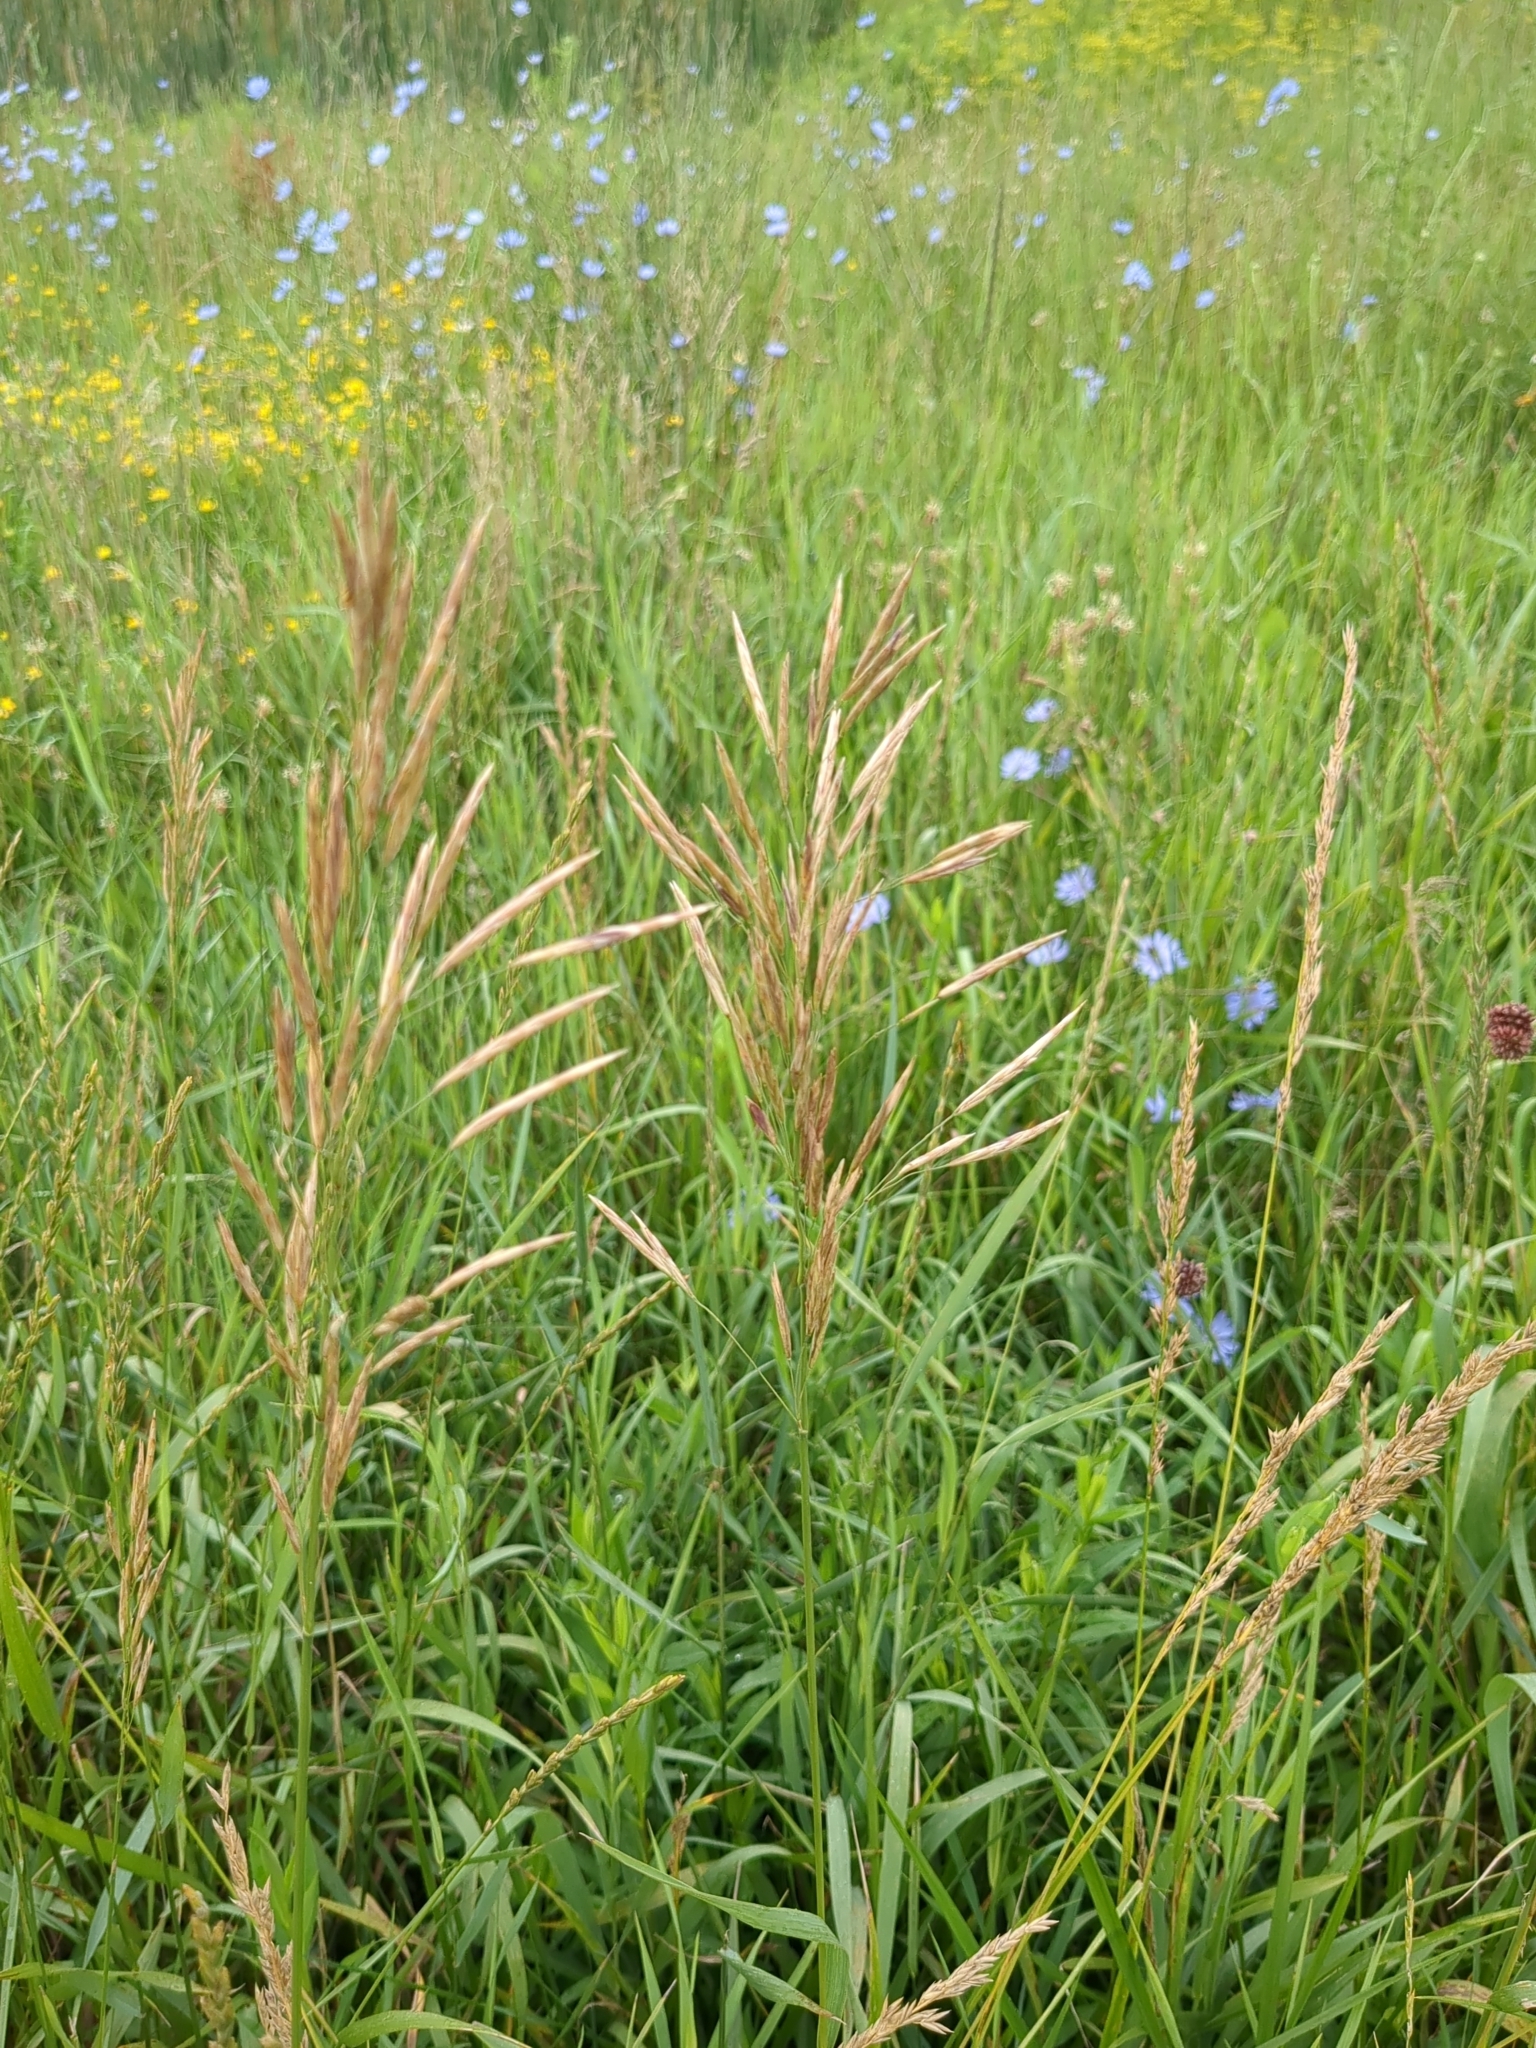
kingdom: Plantae
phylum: Tracheophyta
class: Liliopsida
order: Poales
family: Poaceae
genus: Bromus
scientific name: Bromus inermis
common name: Smooth brome
